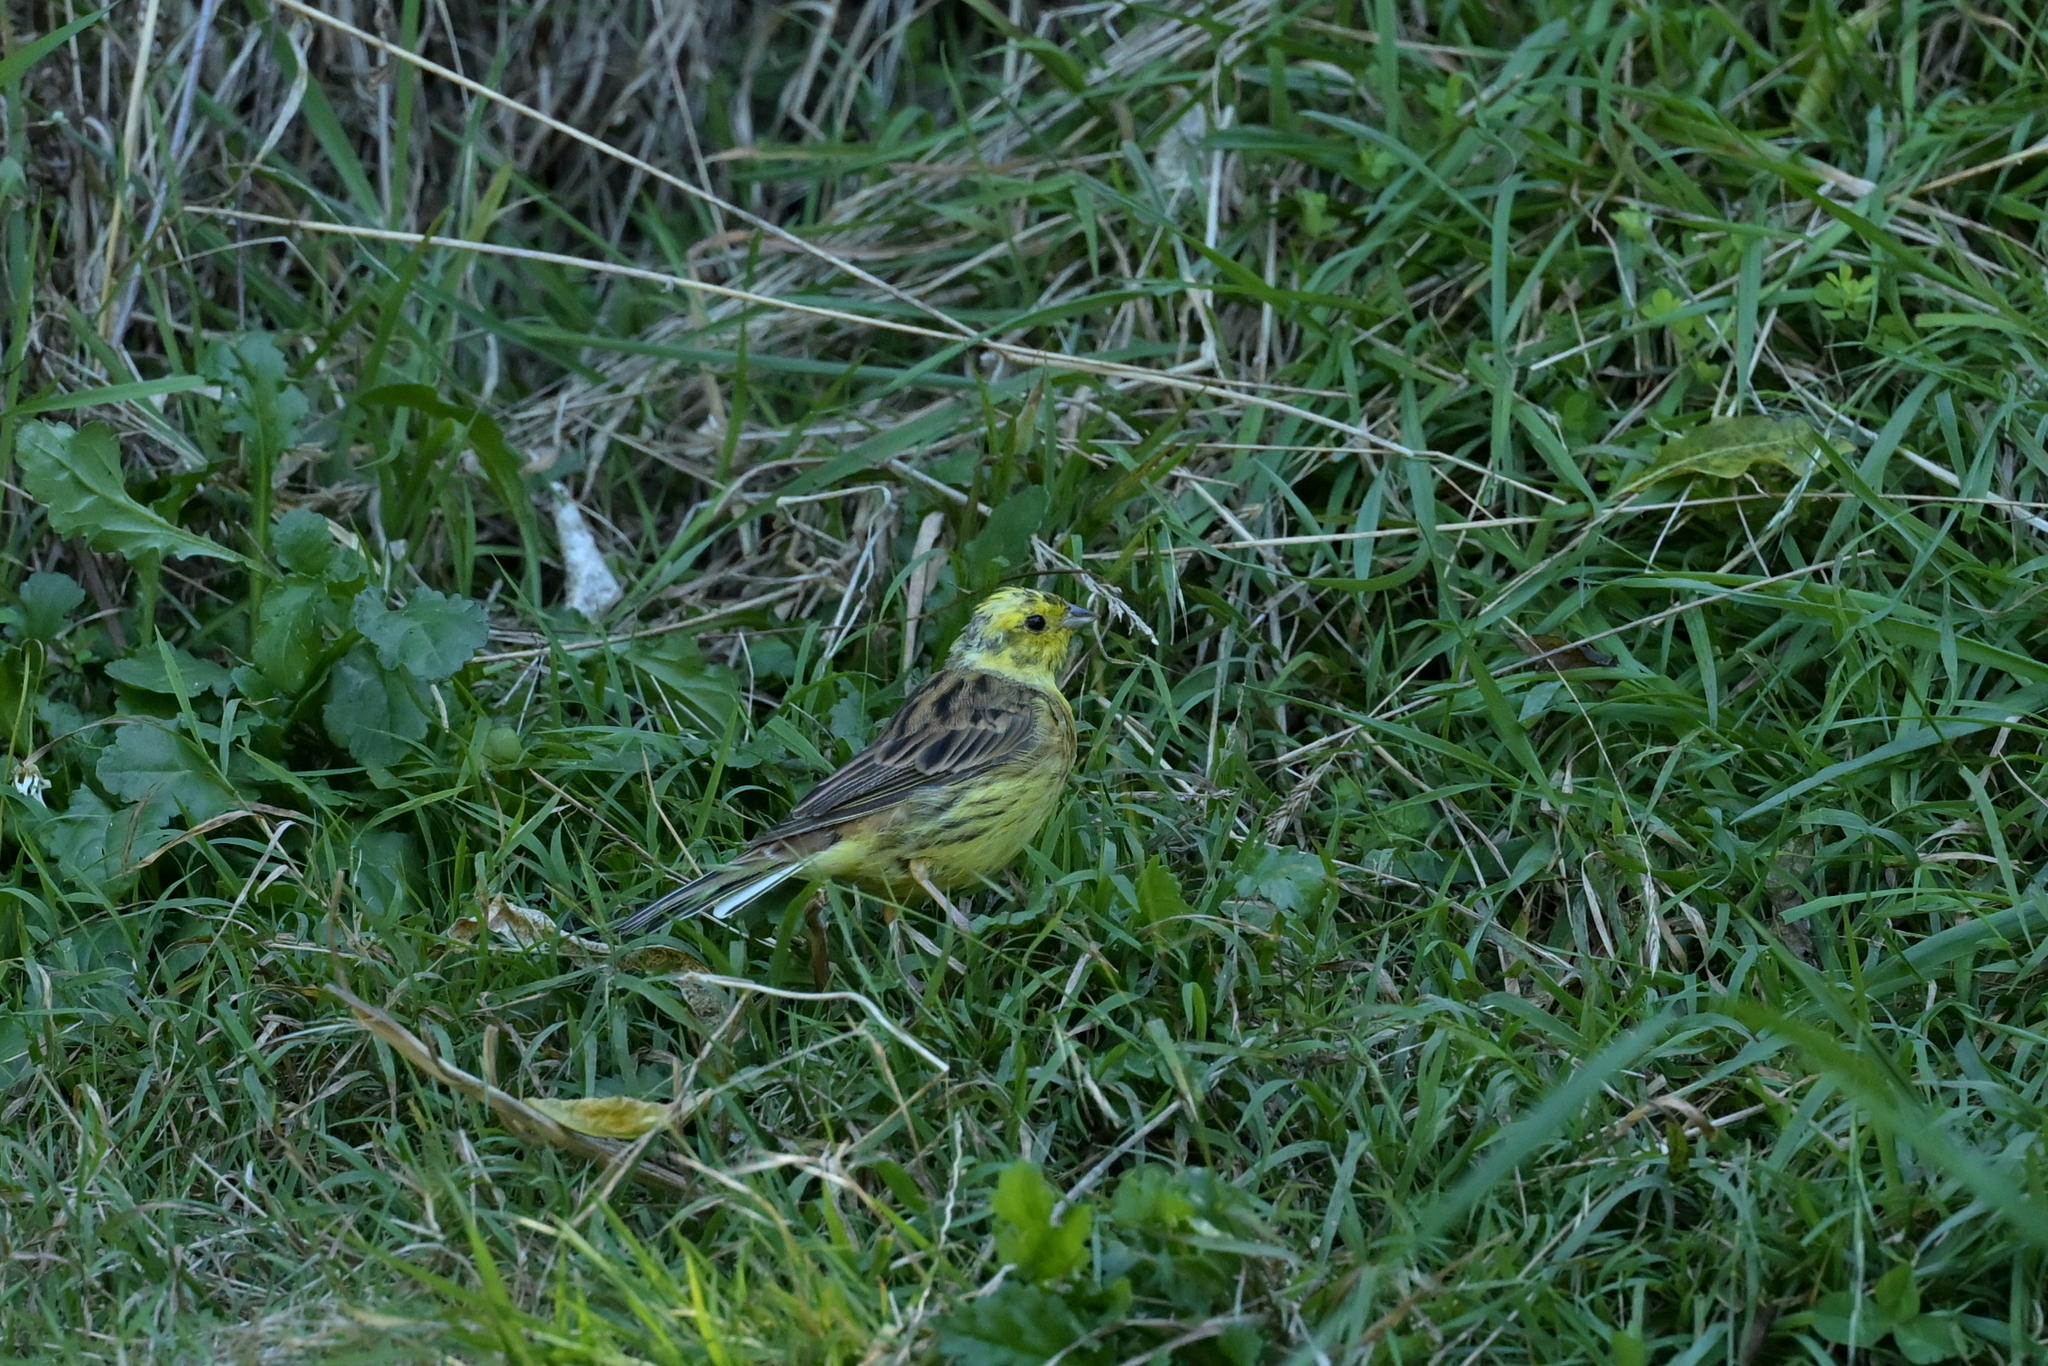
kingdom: Animalia
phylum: Chordata
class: Aves
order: Passeriformes
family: Emberizidae
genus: Emberiza
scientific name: Emberiza citrinella
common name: Yellowhammer
